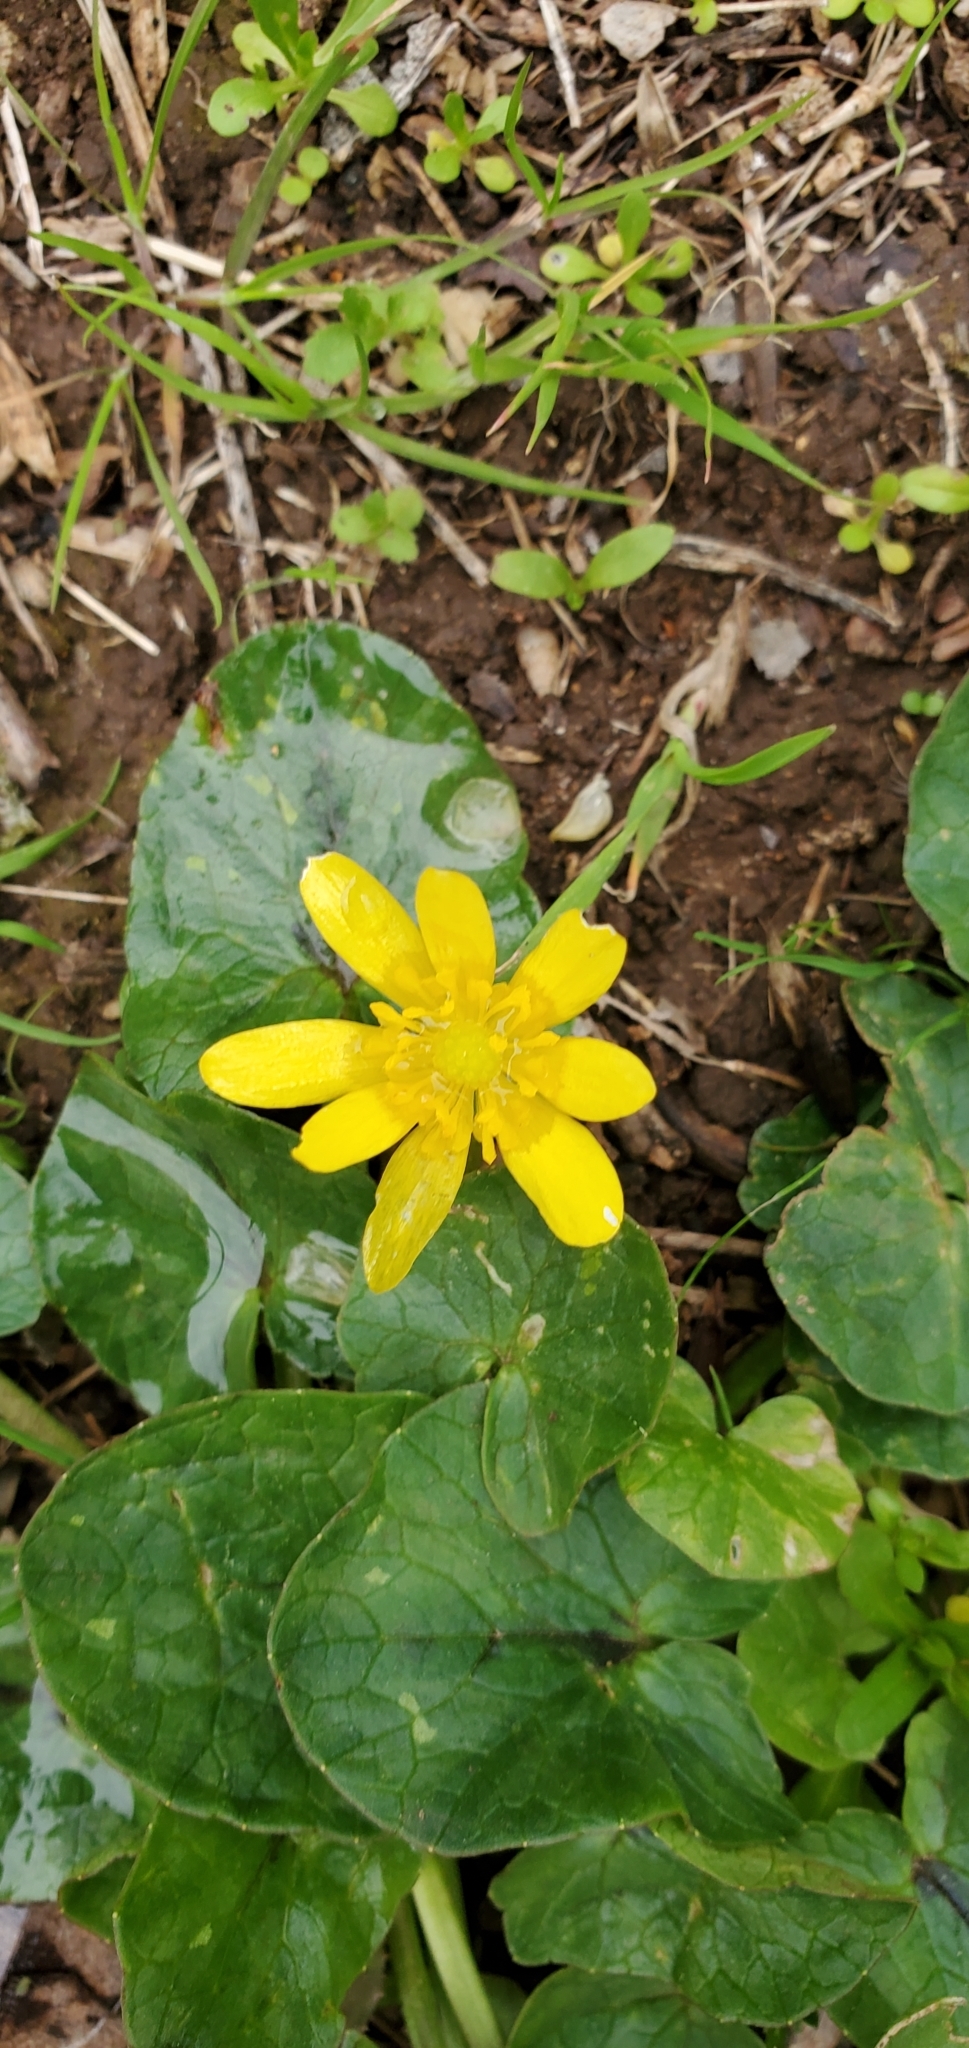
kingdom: Plantae
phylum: Tracheophyta
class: Magnoliopsida
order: Ranunculales
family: Ranunculaceae
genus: Ficaria
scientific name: Ficaria verna
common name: Lesser celandine
